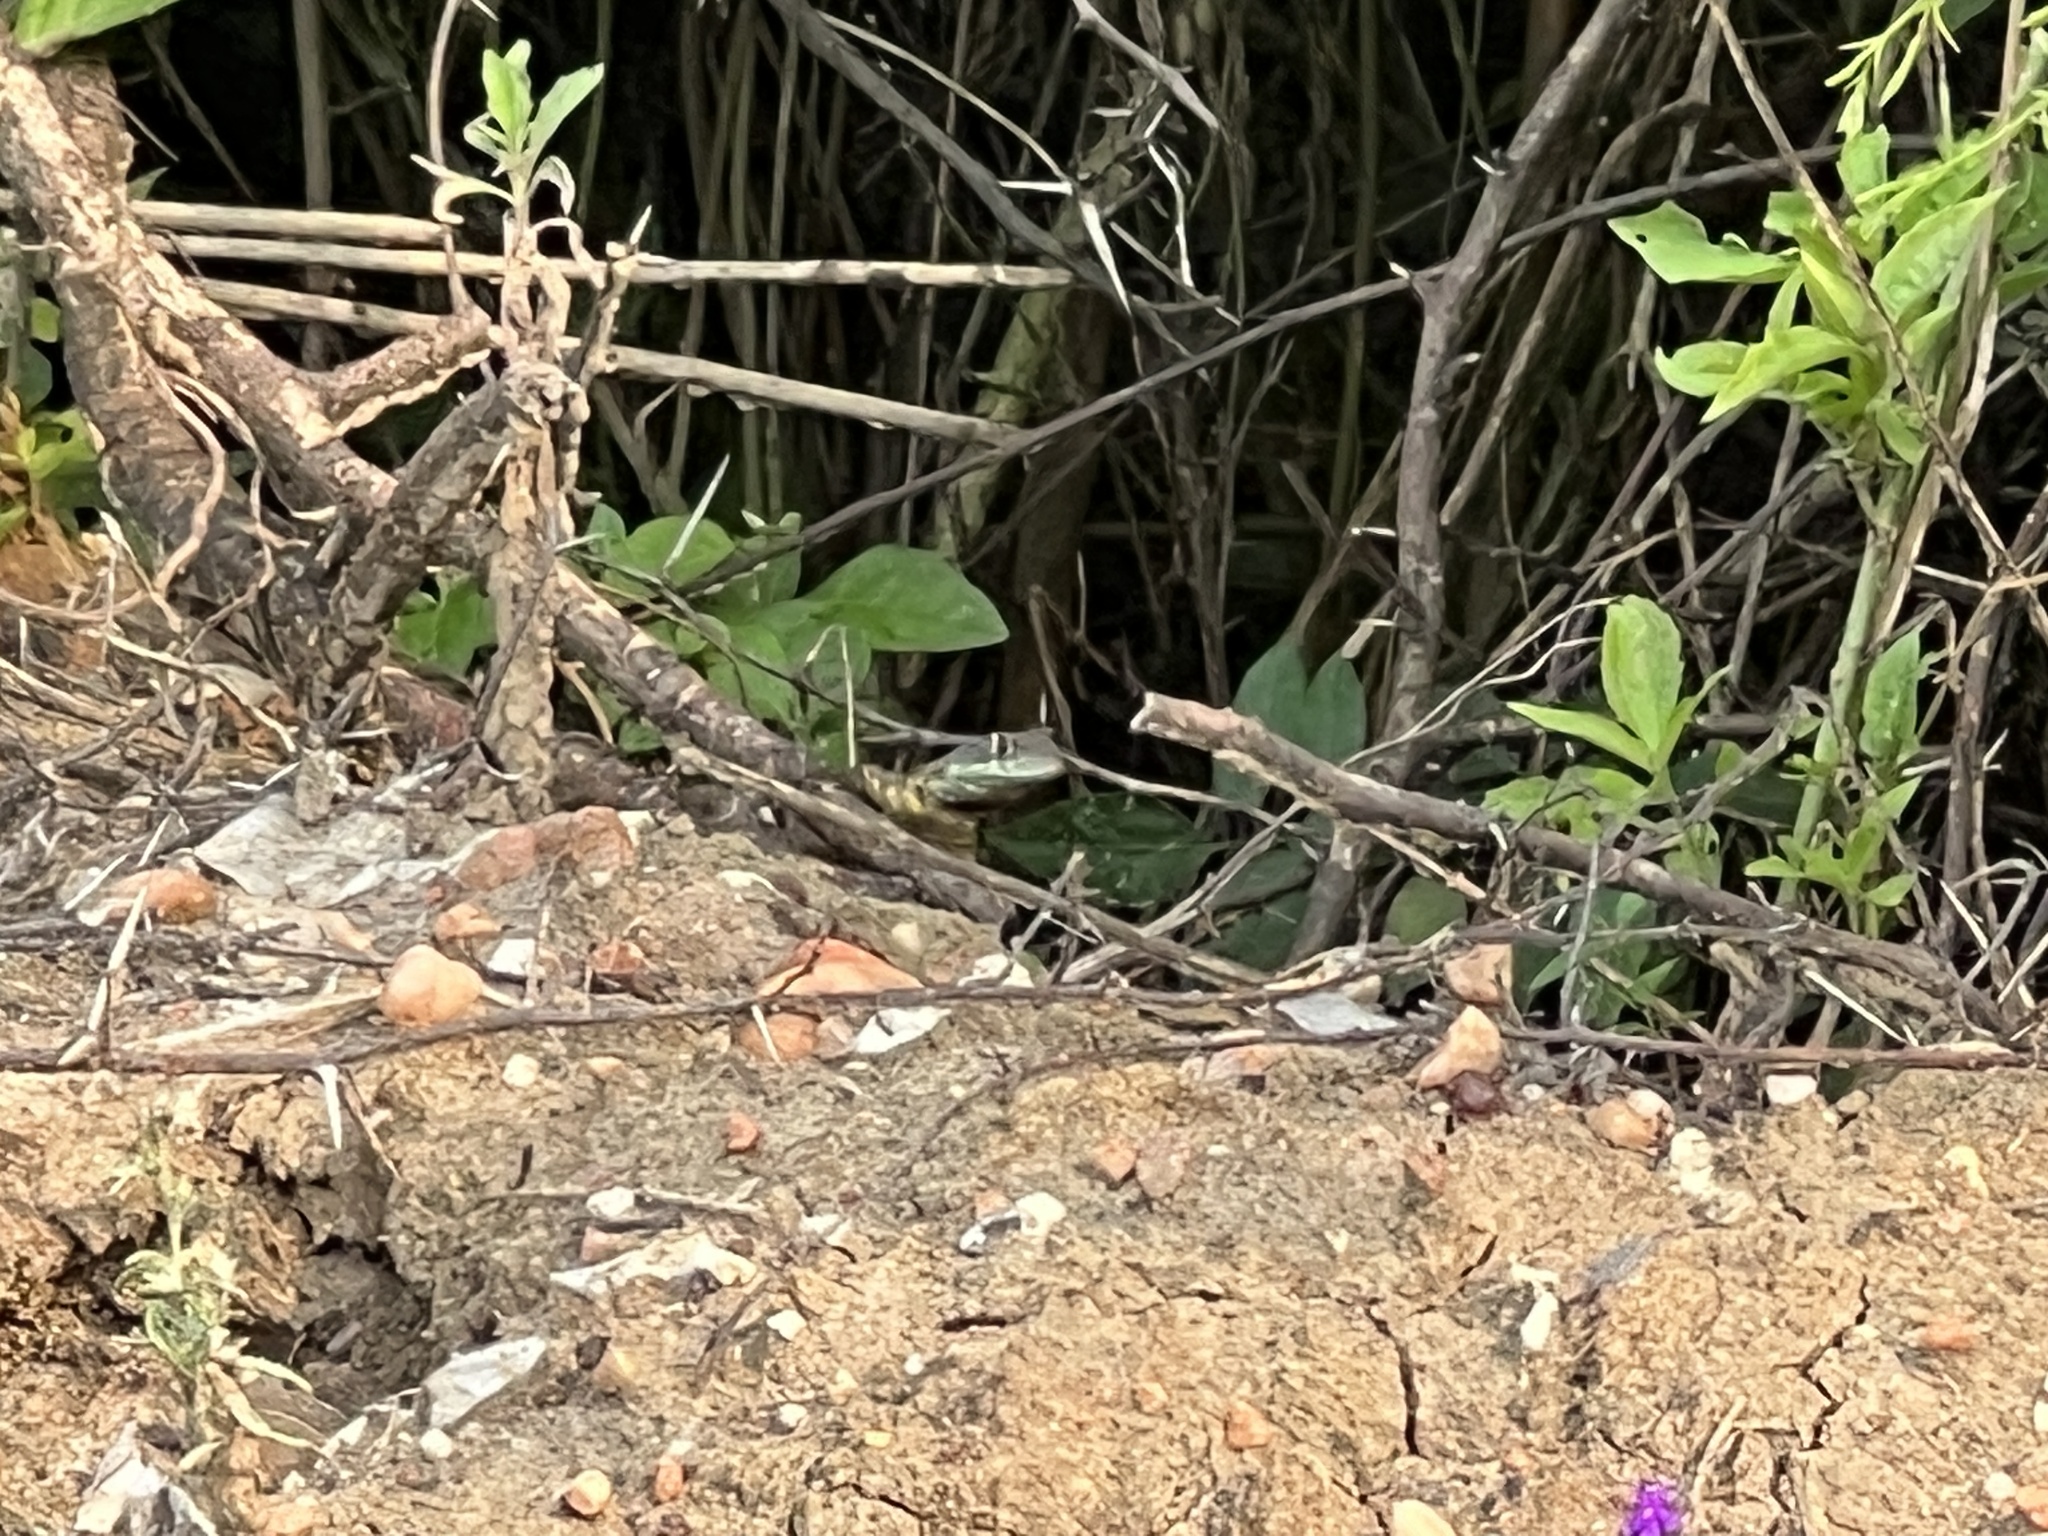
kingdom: Animalia
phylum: Chordata
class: Squamata
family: Tropiduridae
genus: Tropidurus
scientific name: Tropidurus catalanensis
